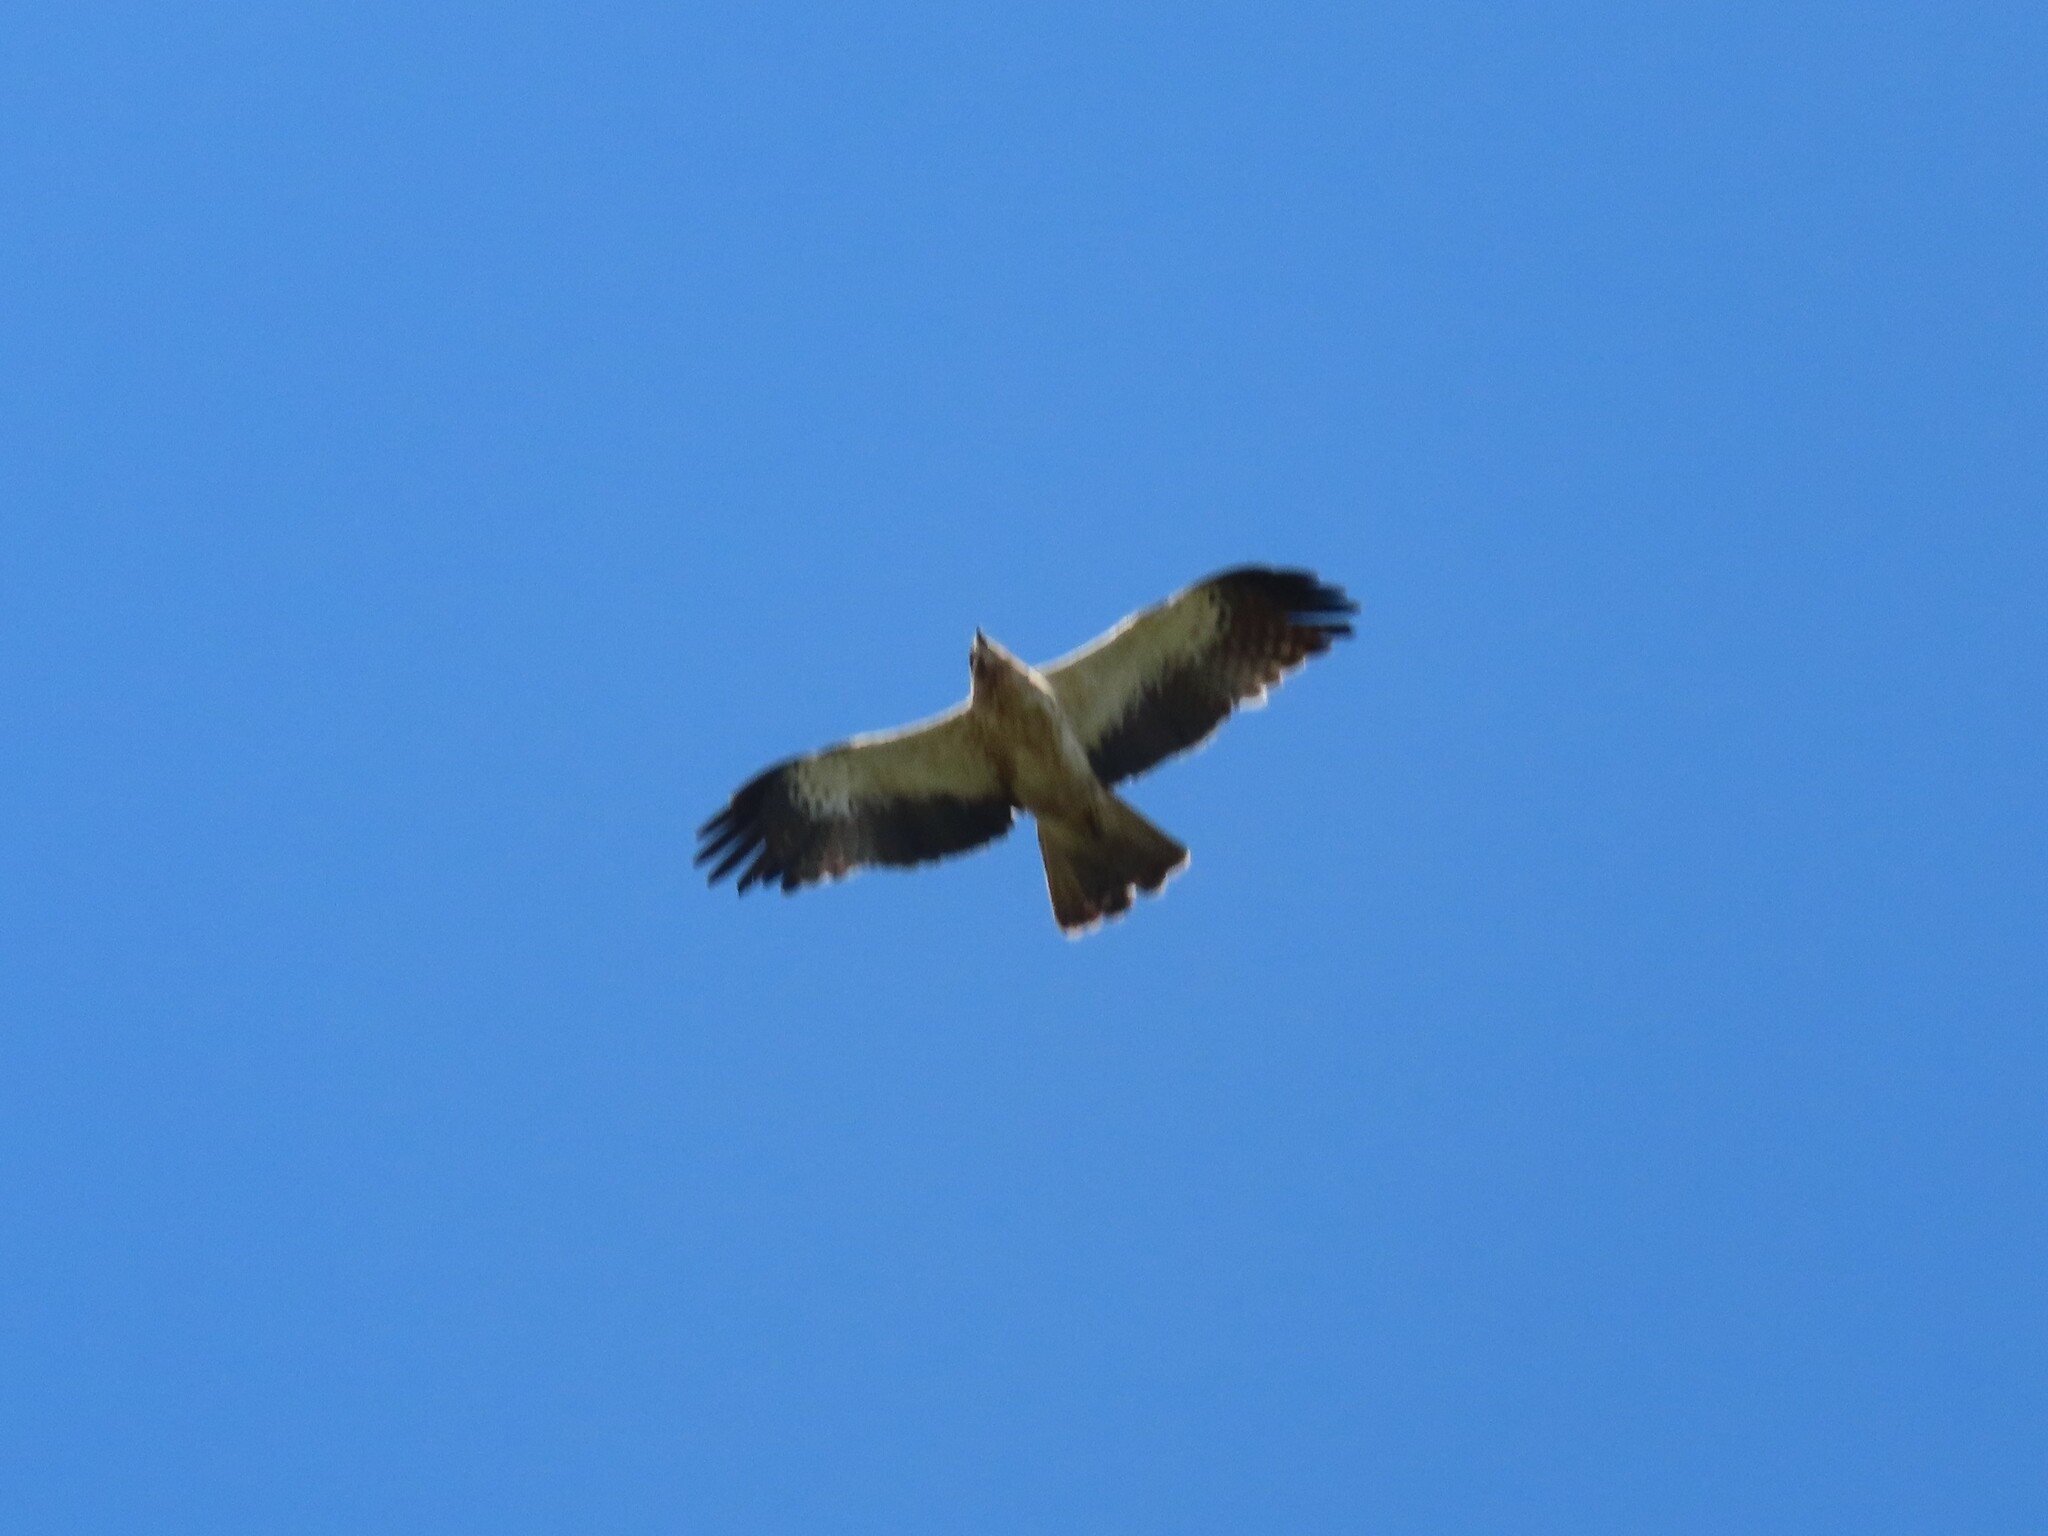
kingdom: Animalia
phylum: Chordata
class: Aves
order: Accipitriformes
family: Accipitridae
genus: Hieraaetus
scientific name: Hieraaetus pennatus
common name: Booted eagle
